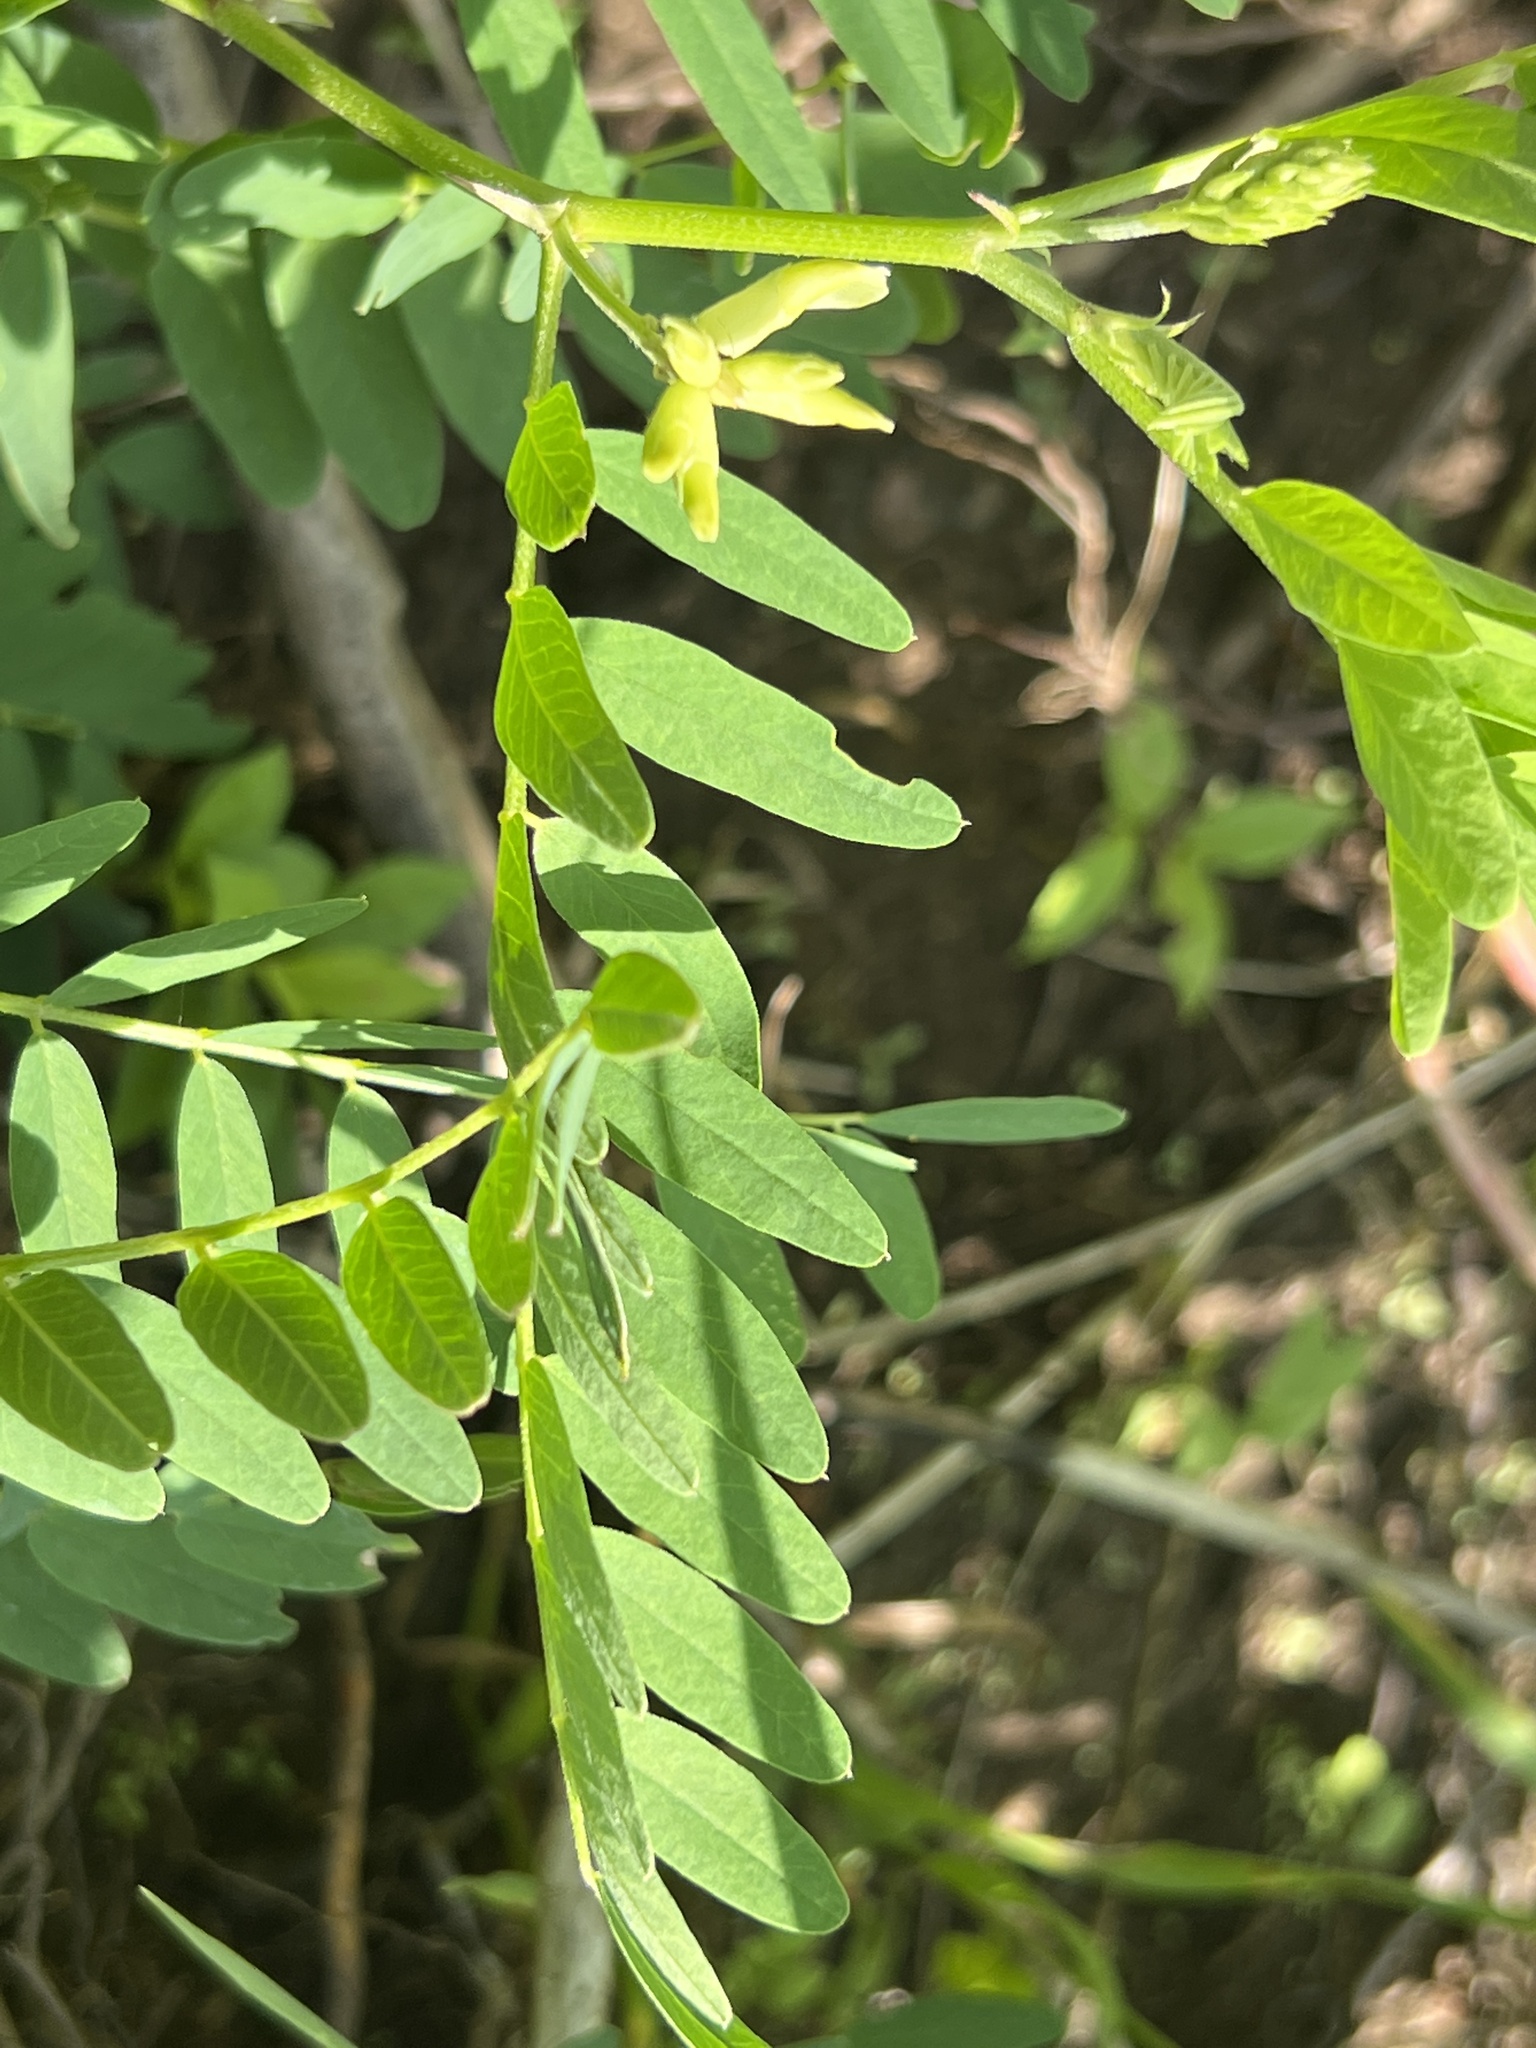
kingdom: Plantae
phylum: Tracheophyta
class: Magnoliopsida
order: Fabales
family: Fabaceae
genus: Astragalus
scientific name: Astragalus canadensis
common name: Canada milk-vetch
